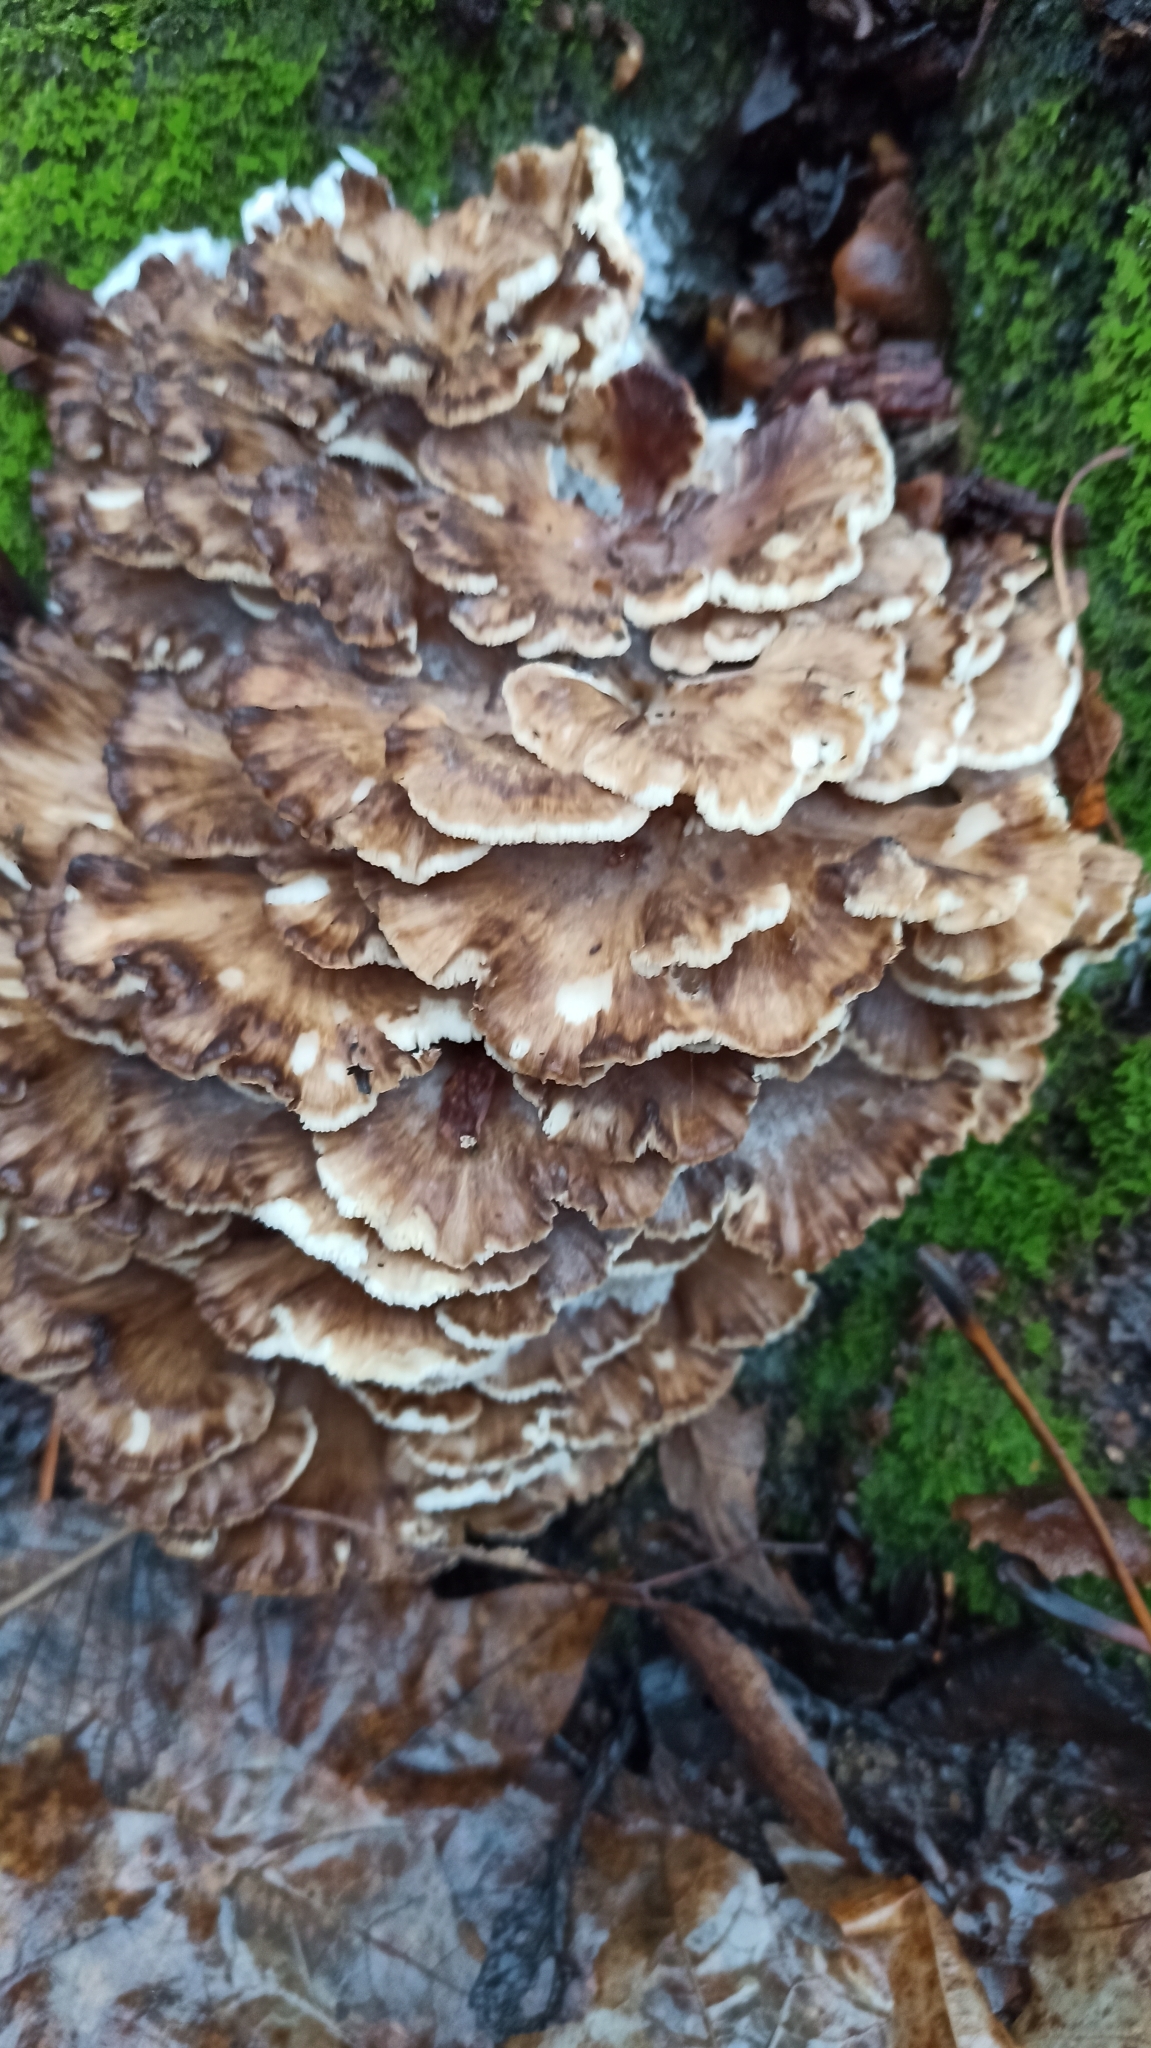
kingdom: Fungi
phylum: Basidiomycota
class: Agaricomycetes
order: Polyporales
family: Grifolaceae
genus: Grifola
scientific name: Grifola frondosa
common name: Hen of the woods
